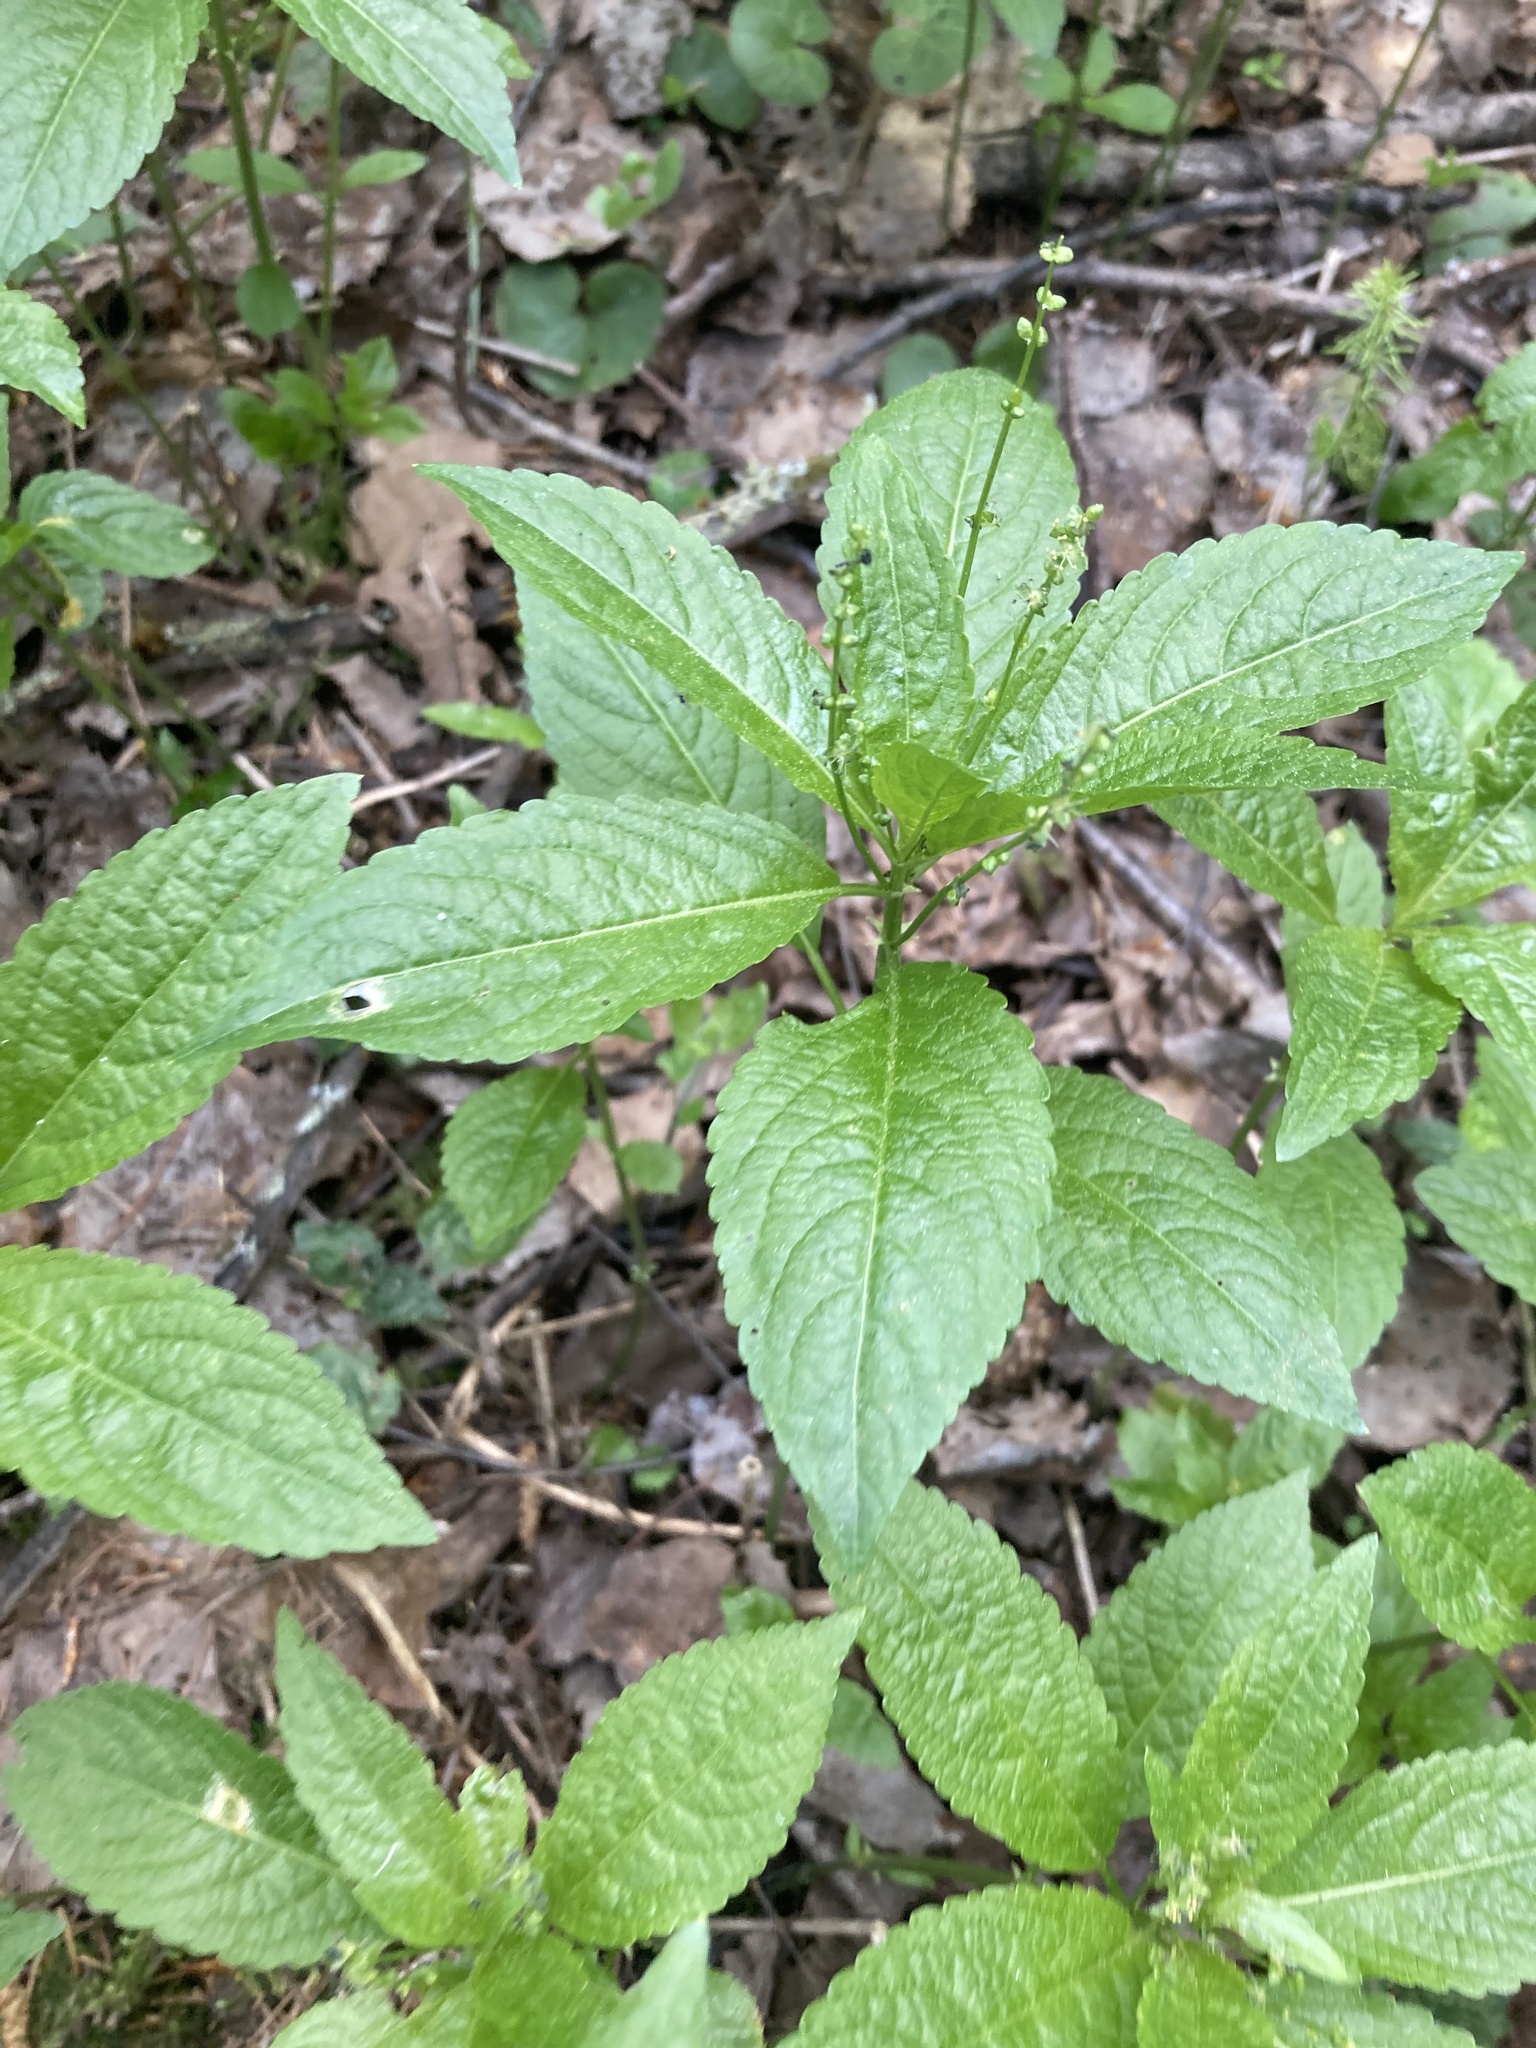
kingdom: Plantae
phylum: Tracheophyta
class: Magnoliopsida
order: Malpighiales
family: Euphorbiaceae
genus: Mercurialis
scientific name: Mercurialis perennis
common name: Dog mercury
